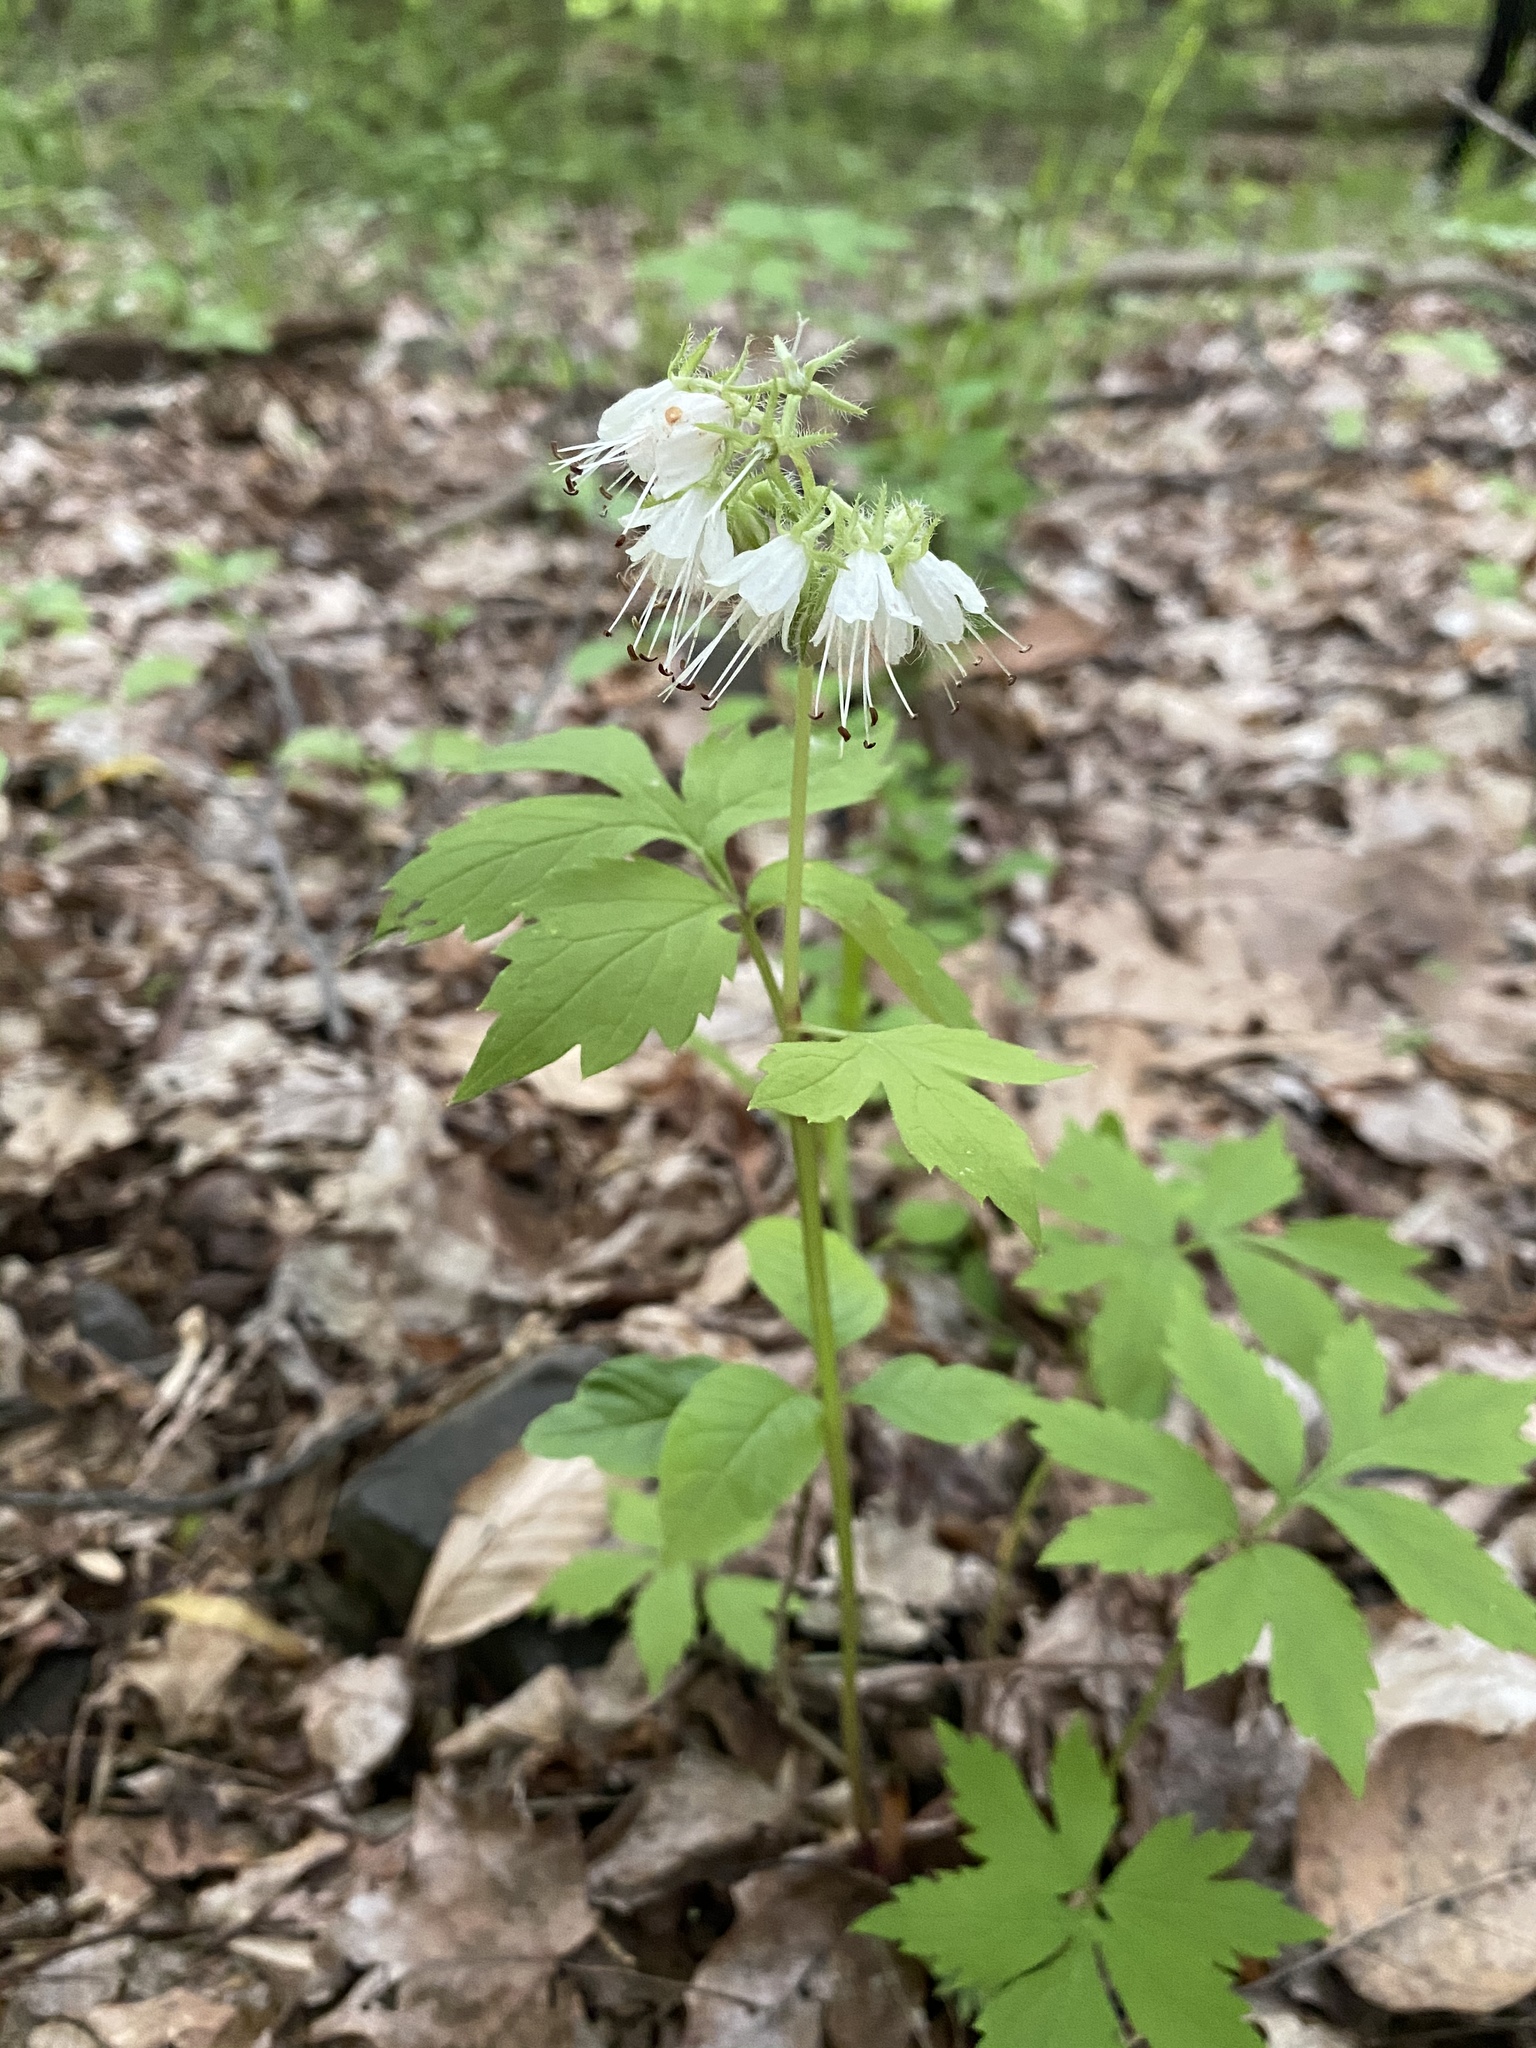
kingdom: Plantae
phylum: Tracheophyta
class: Magnoliopsida
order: Boraginales
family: Hydrophyllaceae
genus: Hydrophyllum
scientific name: Hydrophyllum virginianum
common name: Virginia waterleaf
